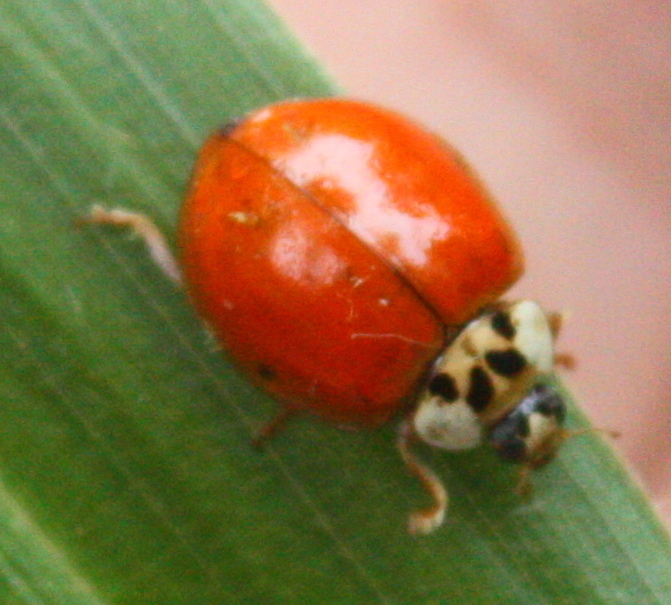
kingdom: Animalia
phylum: Arthropoda
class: Insecta
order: Coleoptera
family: Coccinellidae
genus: Harmonia
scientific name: Harmonia axyridis
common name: Harlequin ladybird
